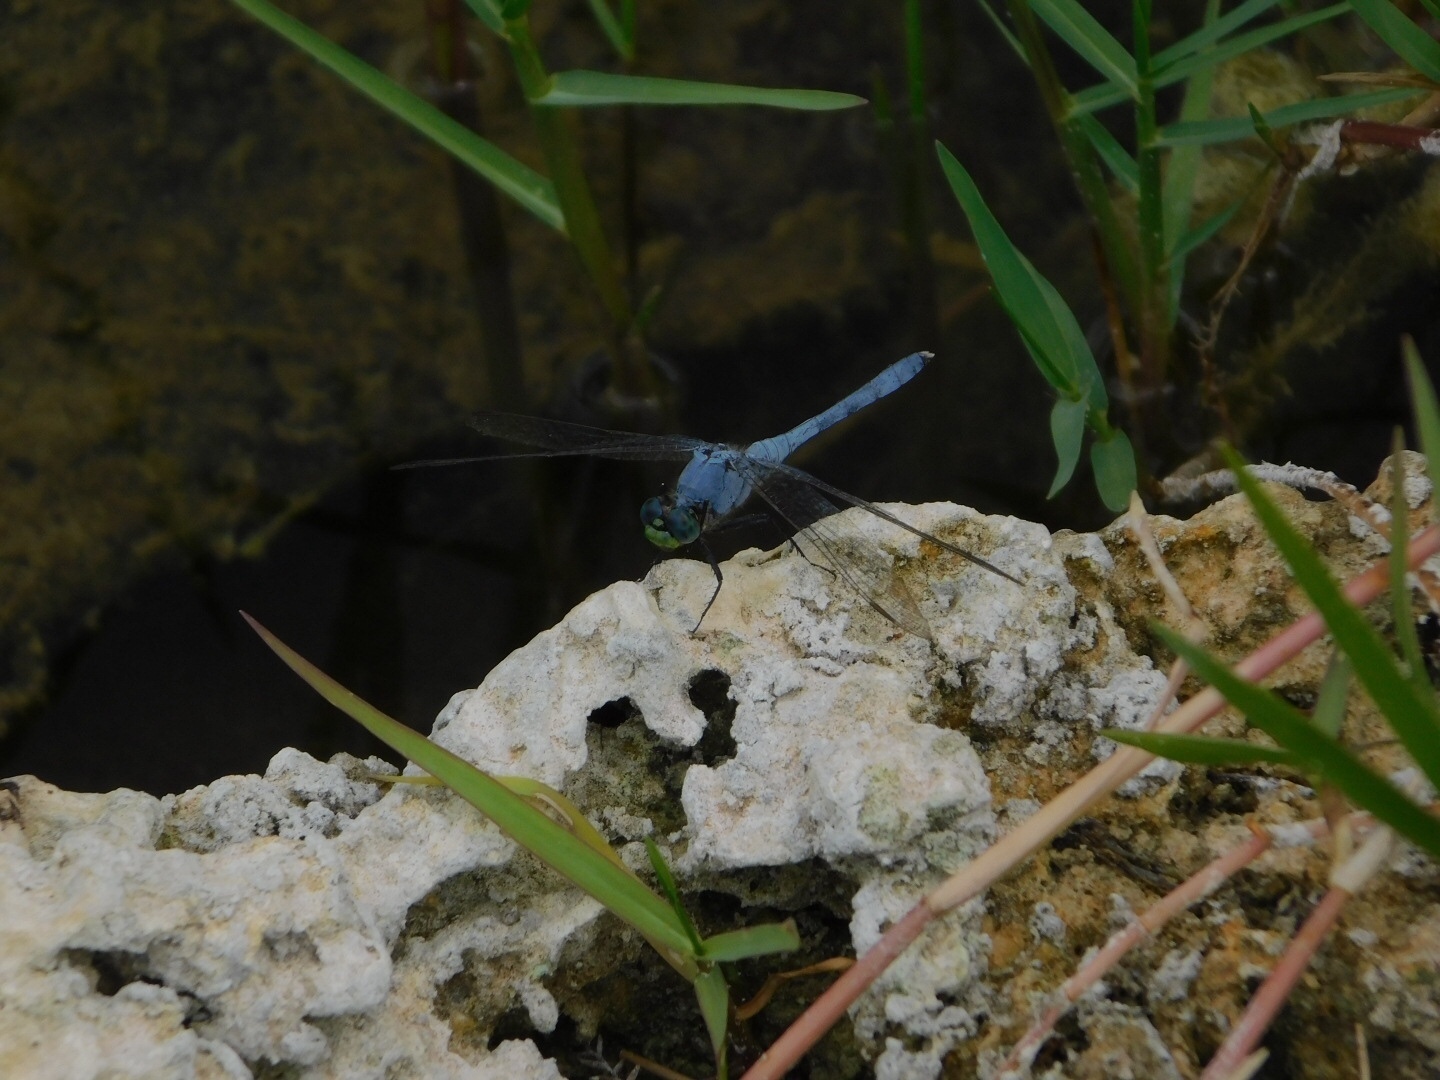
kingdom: Animalia
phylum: Arthropoda
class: Insecta
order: Odonata
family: Libellulidae
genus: Erythemis
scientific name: Erythemis simplicicollis
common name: Eastern pondhawk
